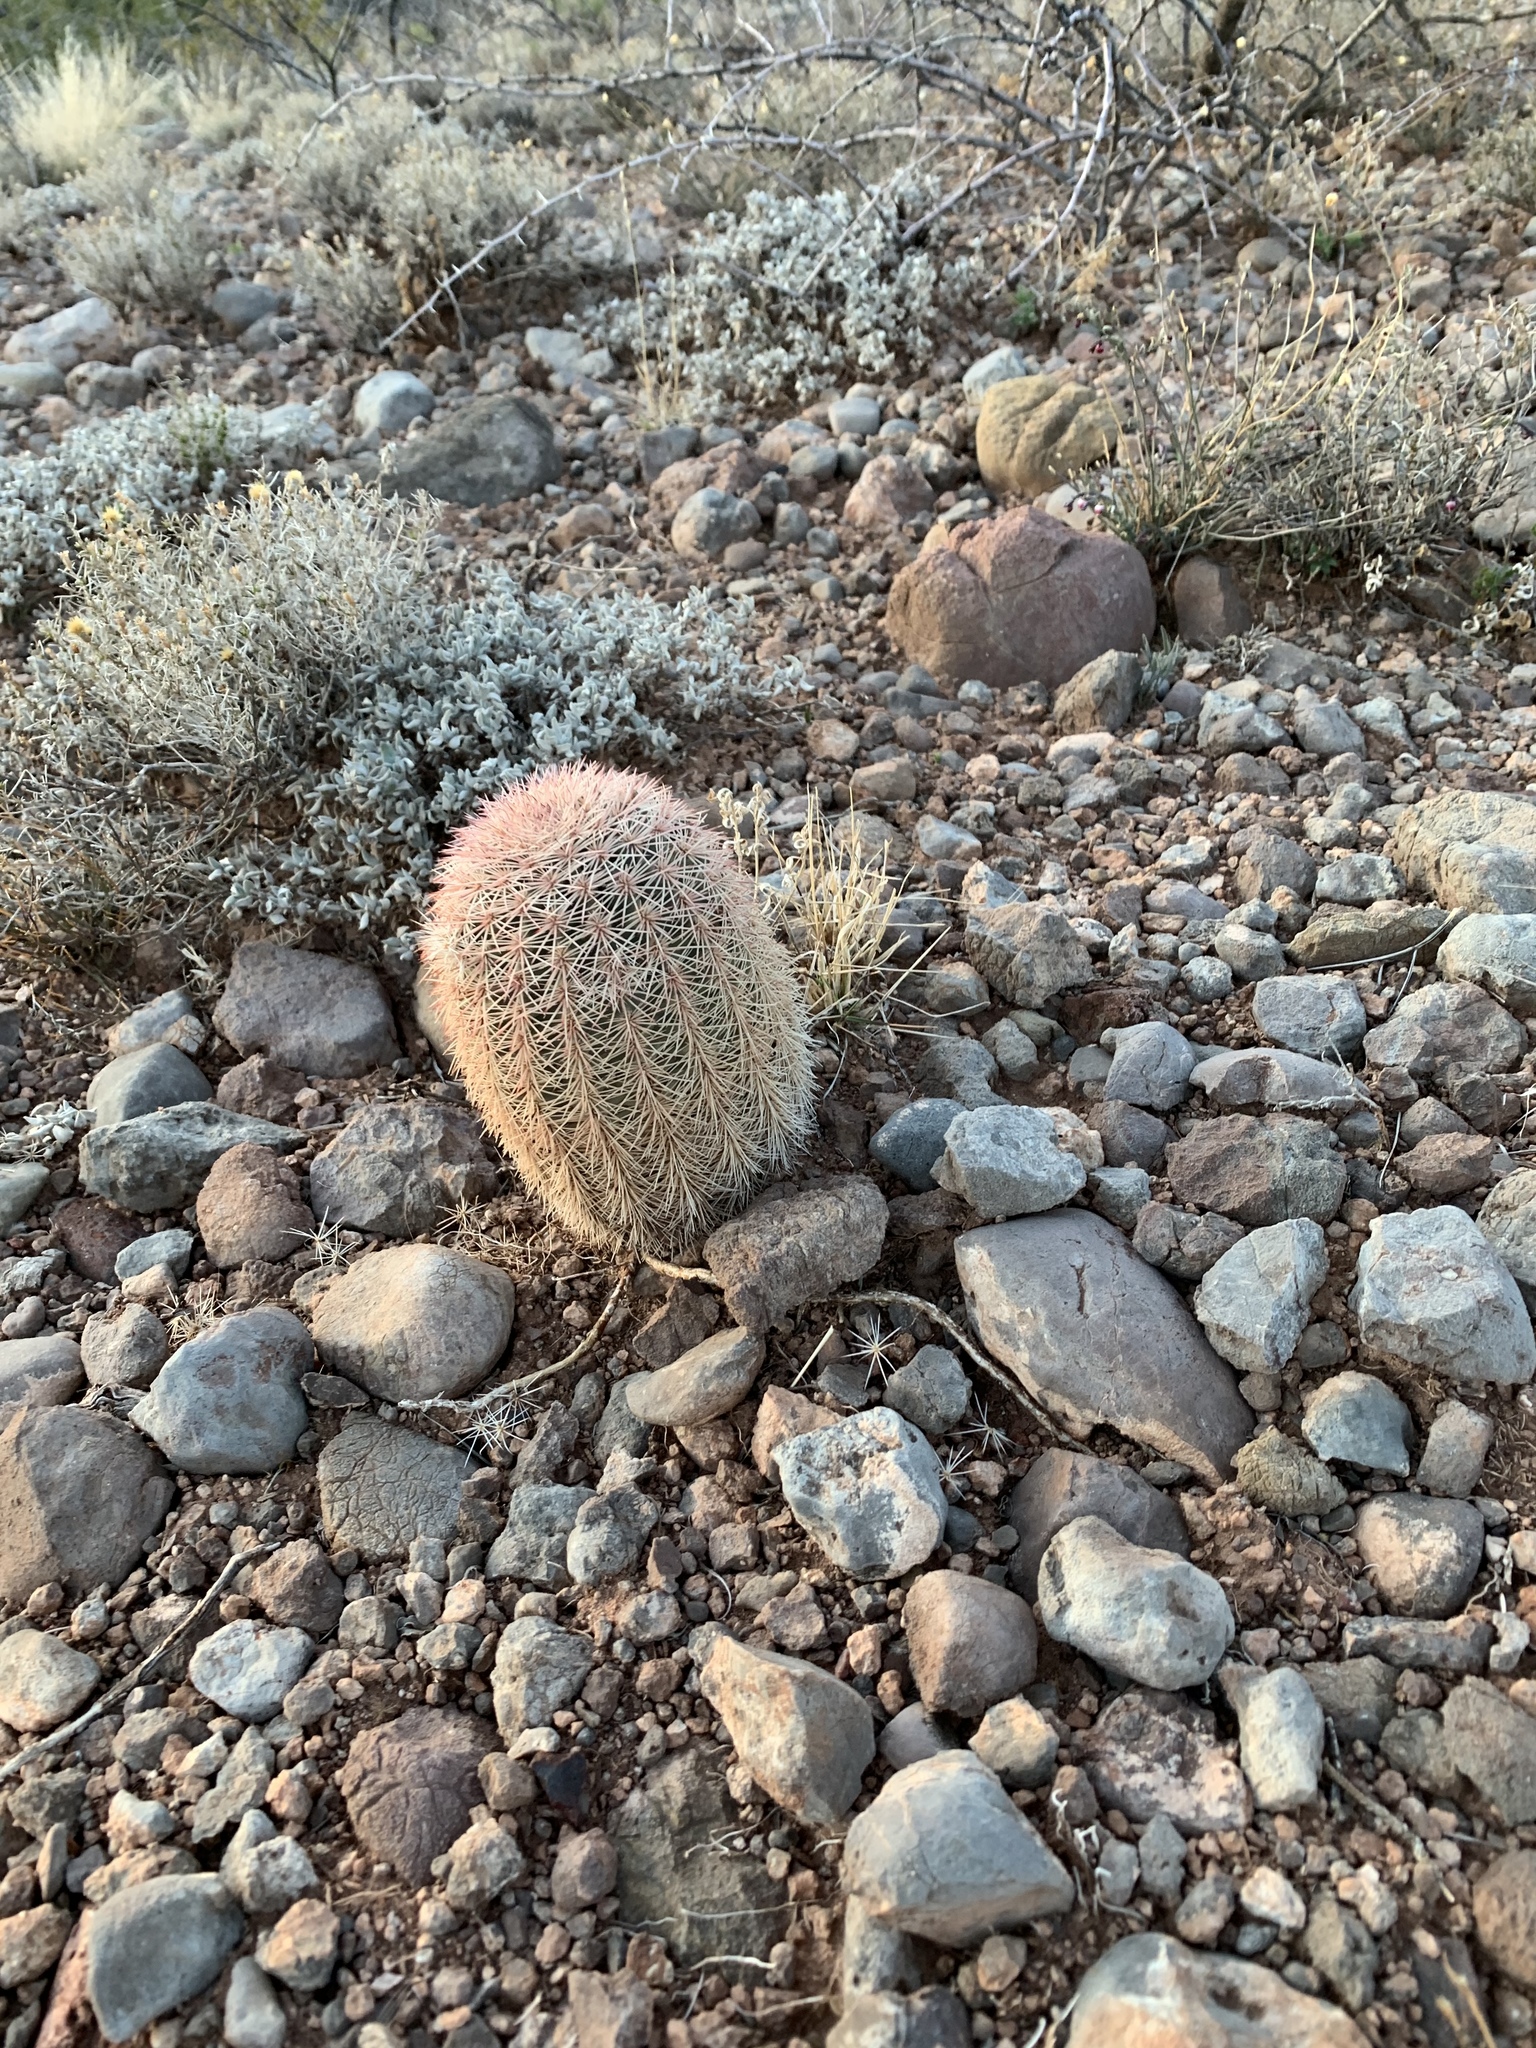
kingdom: Plantae
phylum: Tracheophyta
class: Magnoliopsida
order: Caryophyllales
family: Cactaceae
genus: Echinocereus
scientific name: Echinocereus dasyacanthus
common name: Spiny hedgehog cactus
